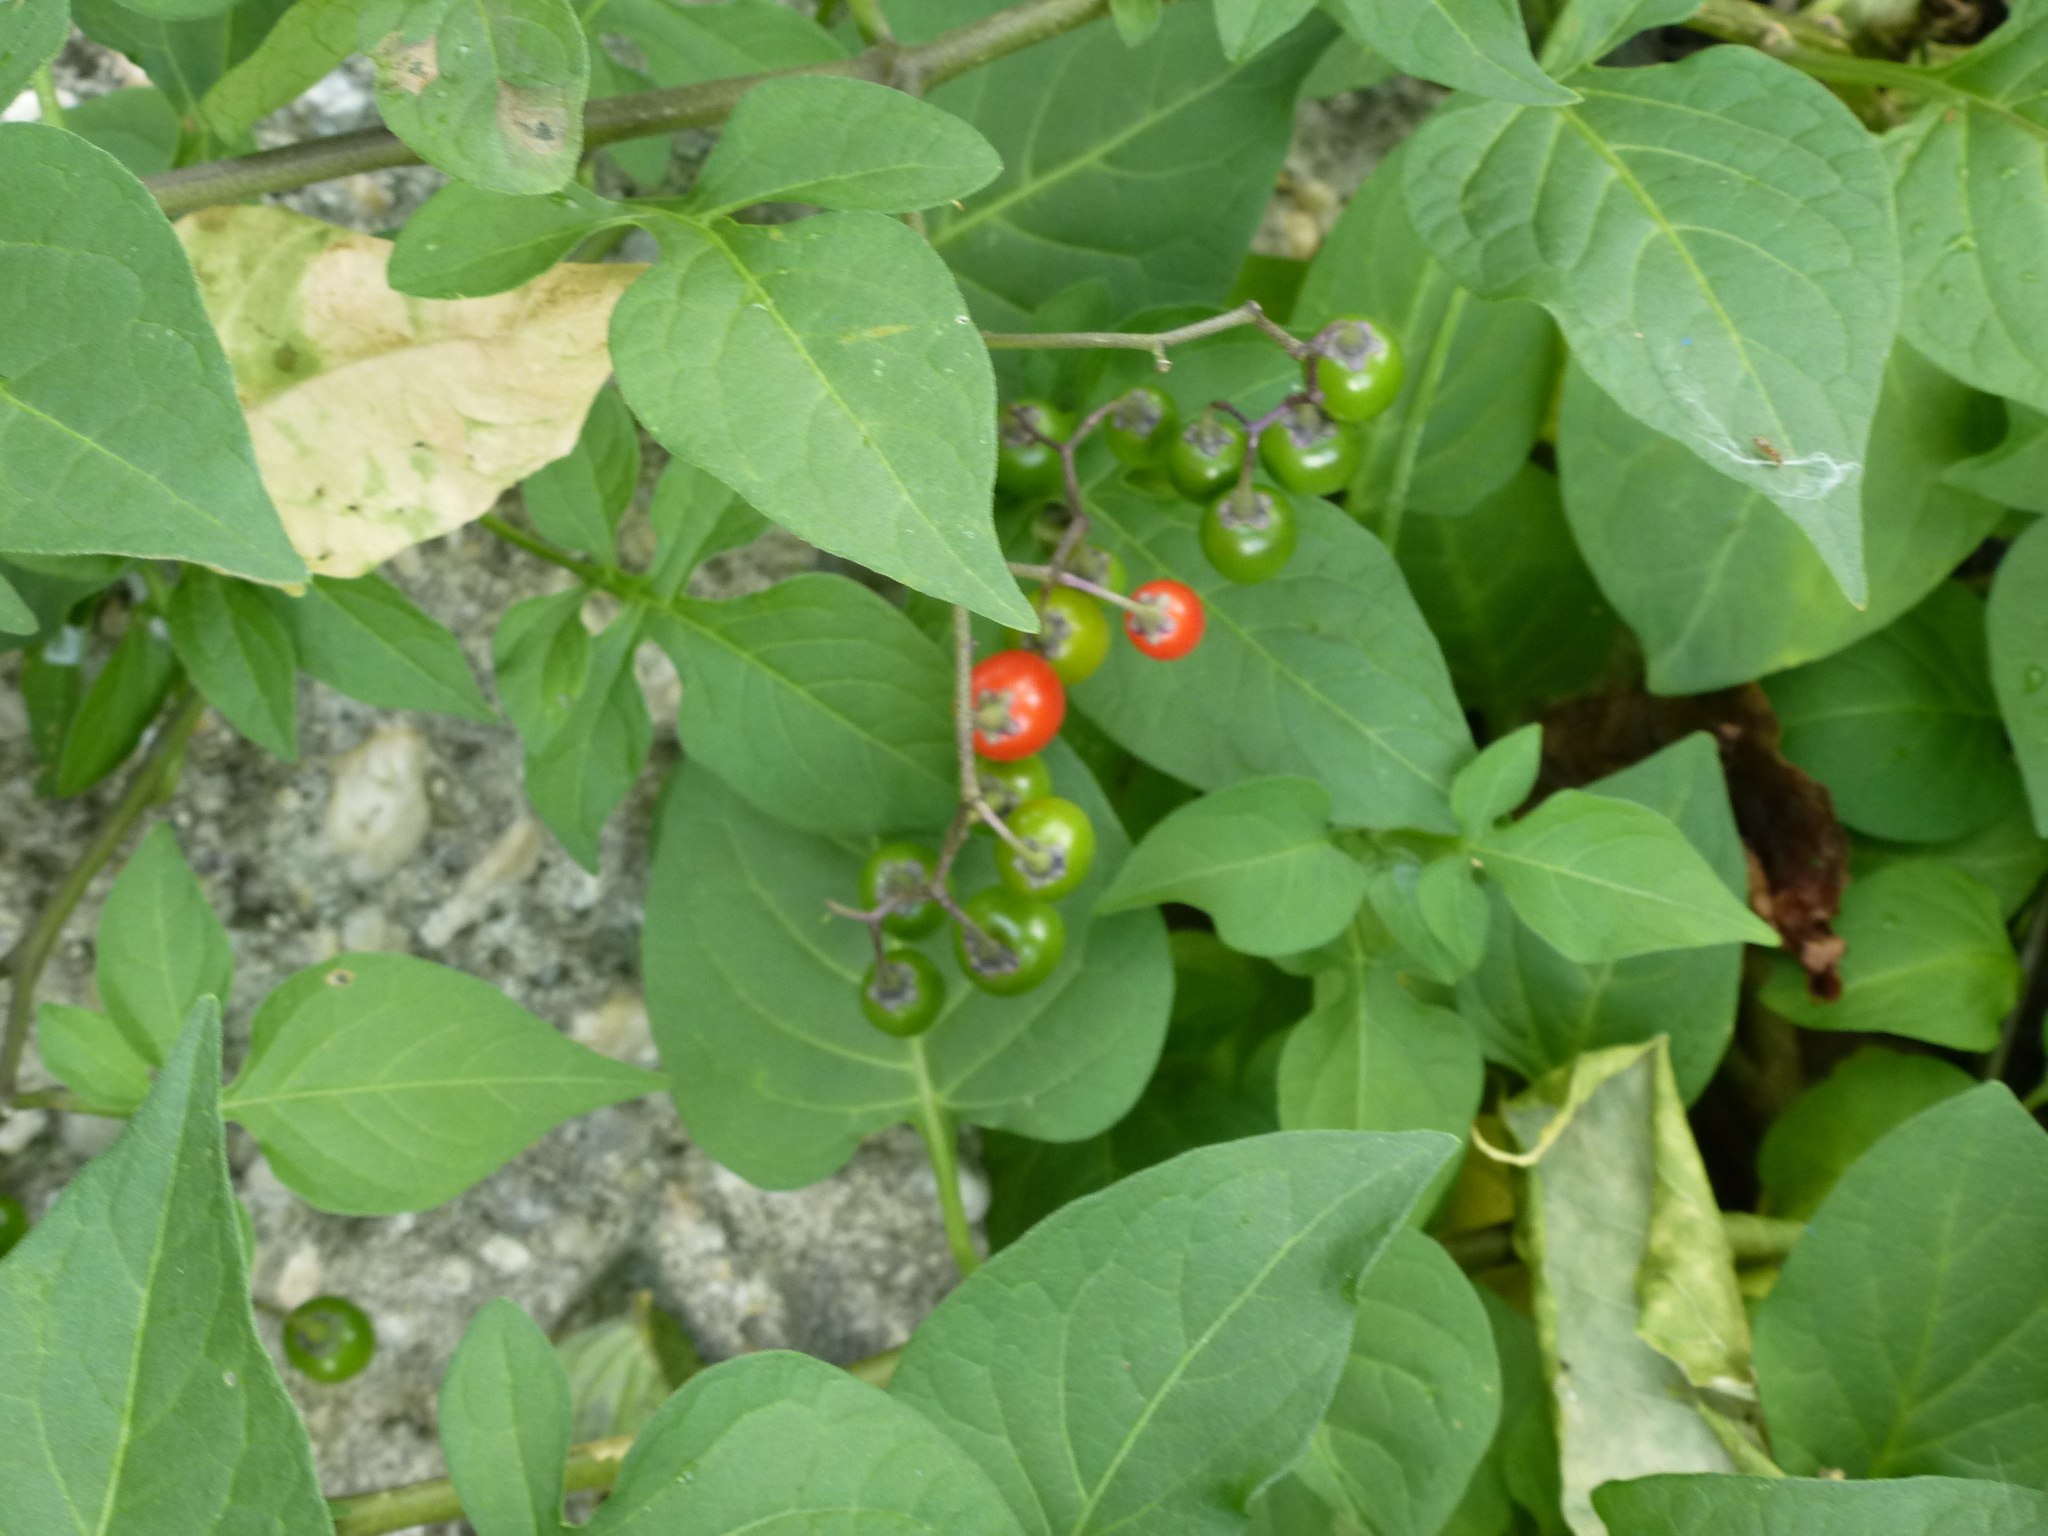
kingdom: Plantae
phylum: Tracheophyta
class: Magnoliopsida
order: Solanales
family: Solanaceae
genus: Solanum
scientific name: Solanum dulcamara
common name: Climbing nightshade
